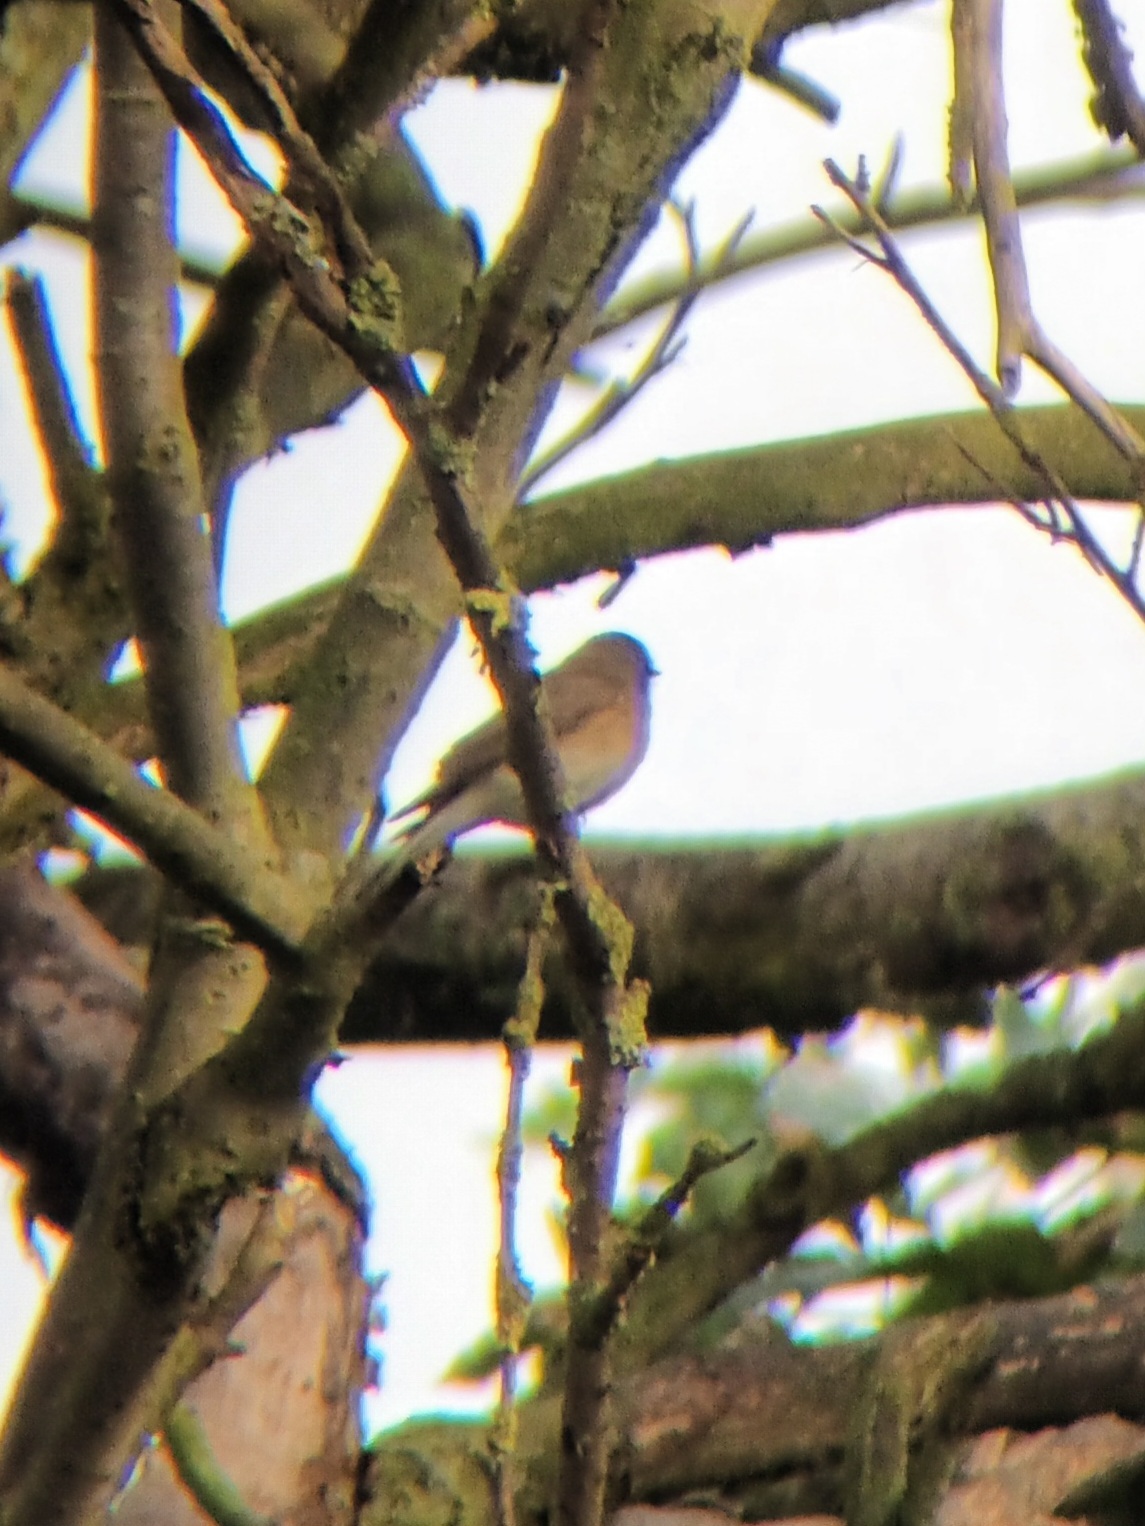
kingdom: Animalia
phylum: Chordata
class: Aves
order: Passeriformes
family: Muscicapidae
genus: Ficedula
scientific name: Ficedula parva
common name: Red-breasted flycatcher
